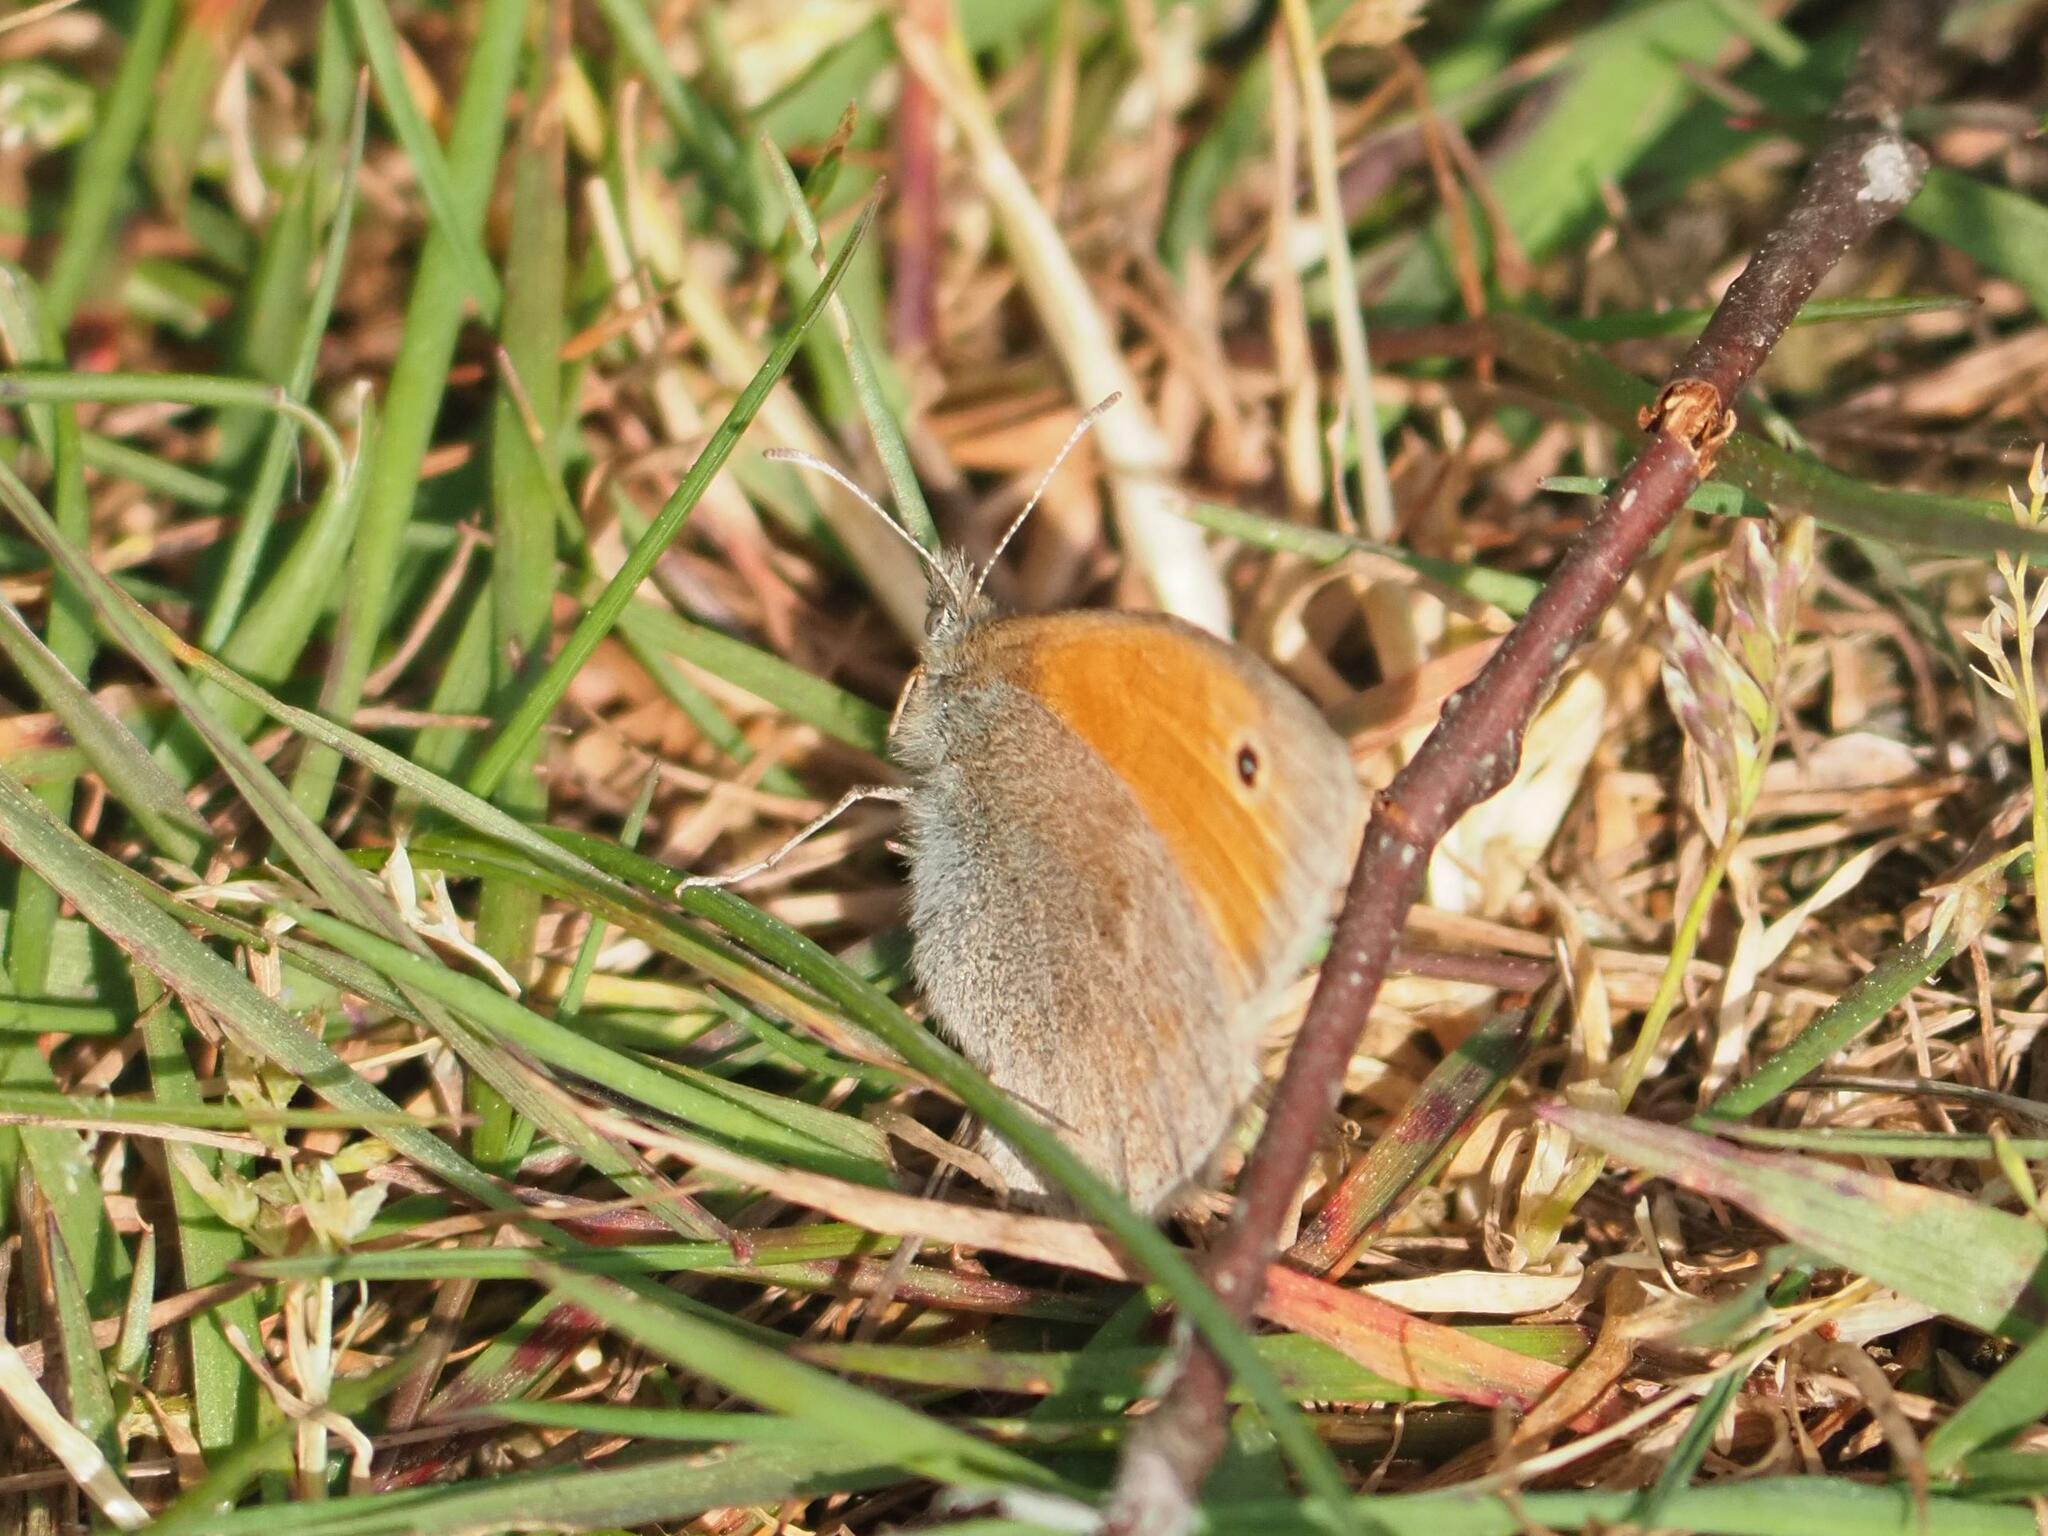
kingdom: Animalia
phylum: Arthropoda
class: Insecta
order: Lepidoptera
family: Nymphalidae
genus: Coenonympha
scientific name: Coenonympha pamphilus
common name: Small heath
